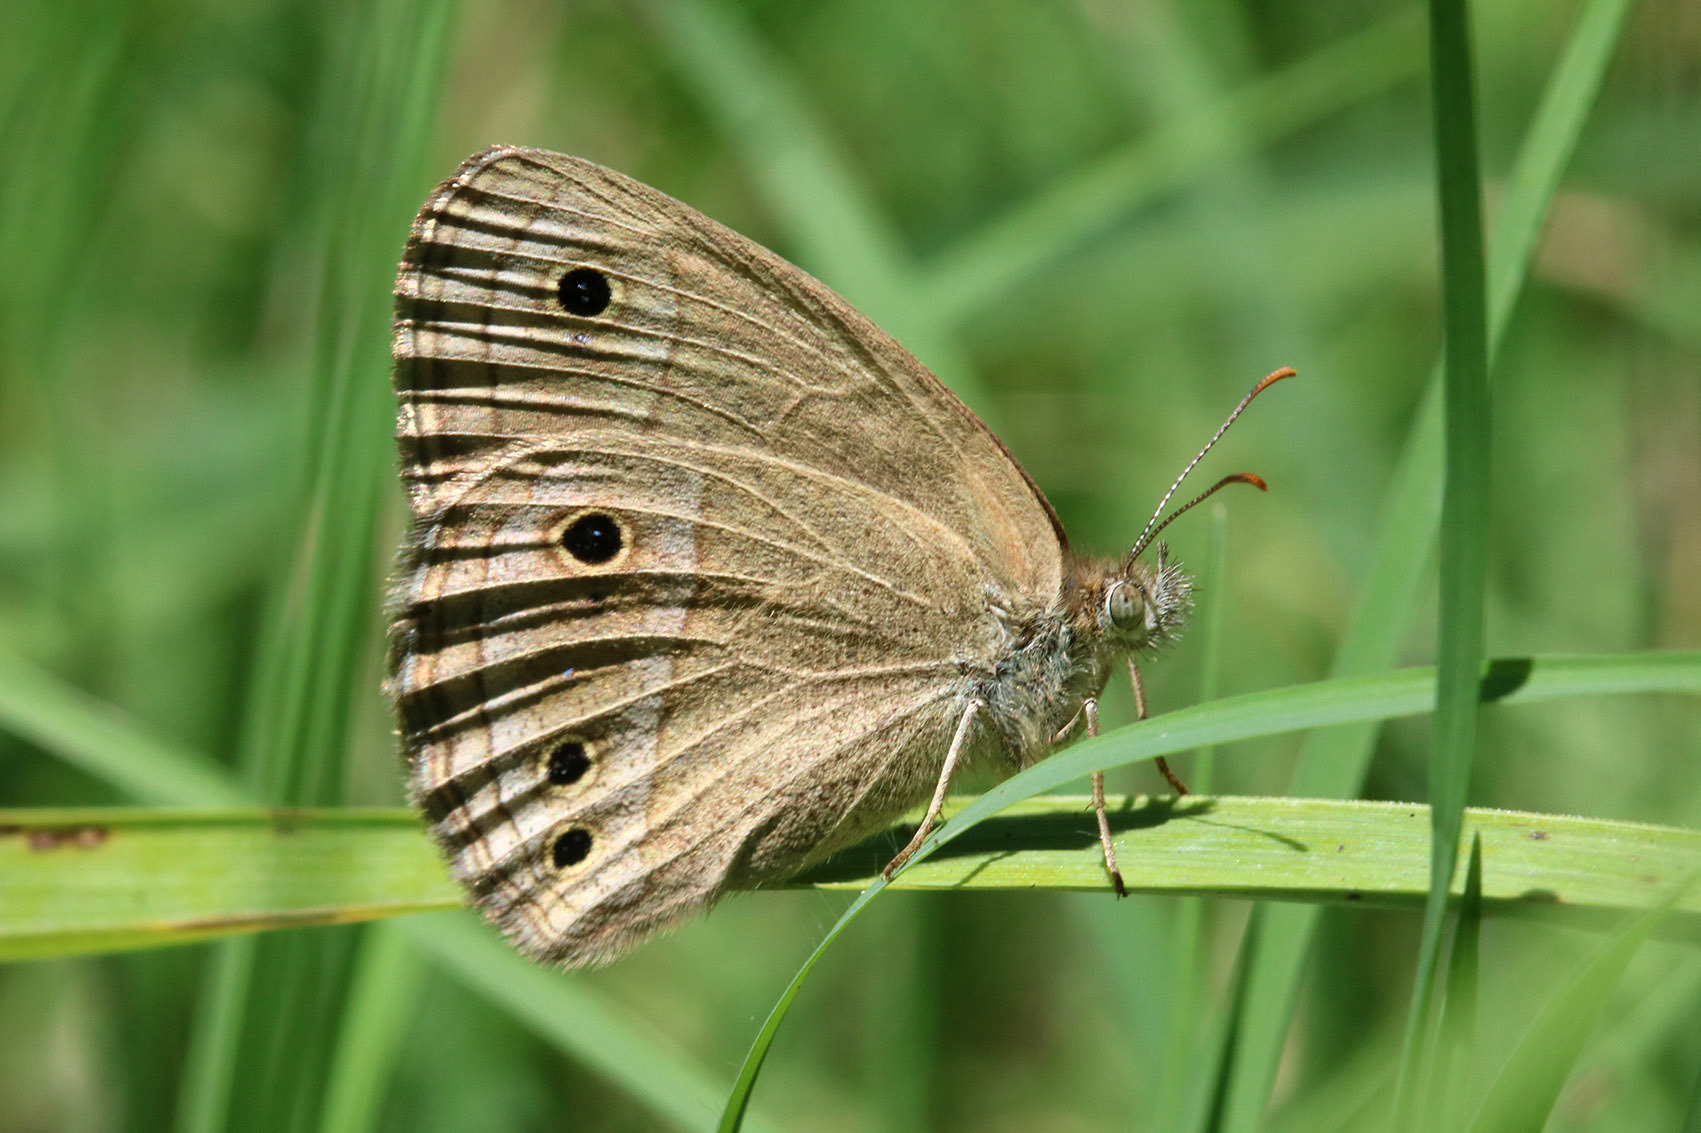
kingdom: Animalia
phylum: Arthropoda
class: Insecta
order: Lepidoptera
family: Nymphalidae
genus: Stegosatyrus
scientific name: Stegosatyrus periphas
